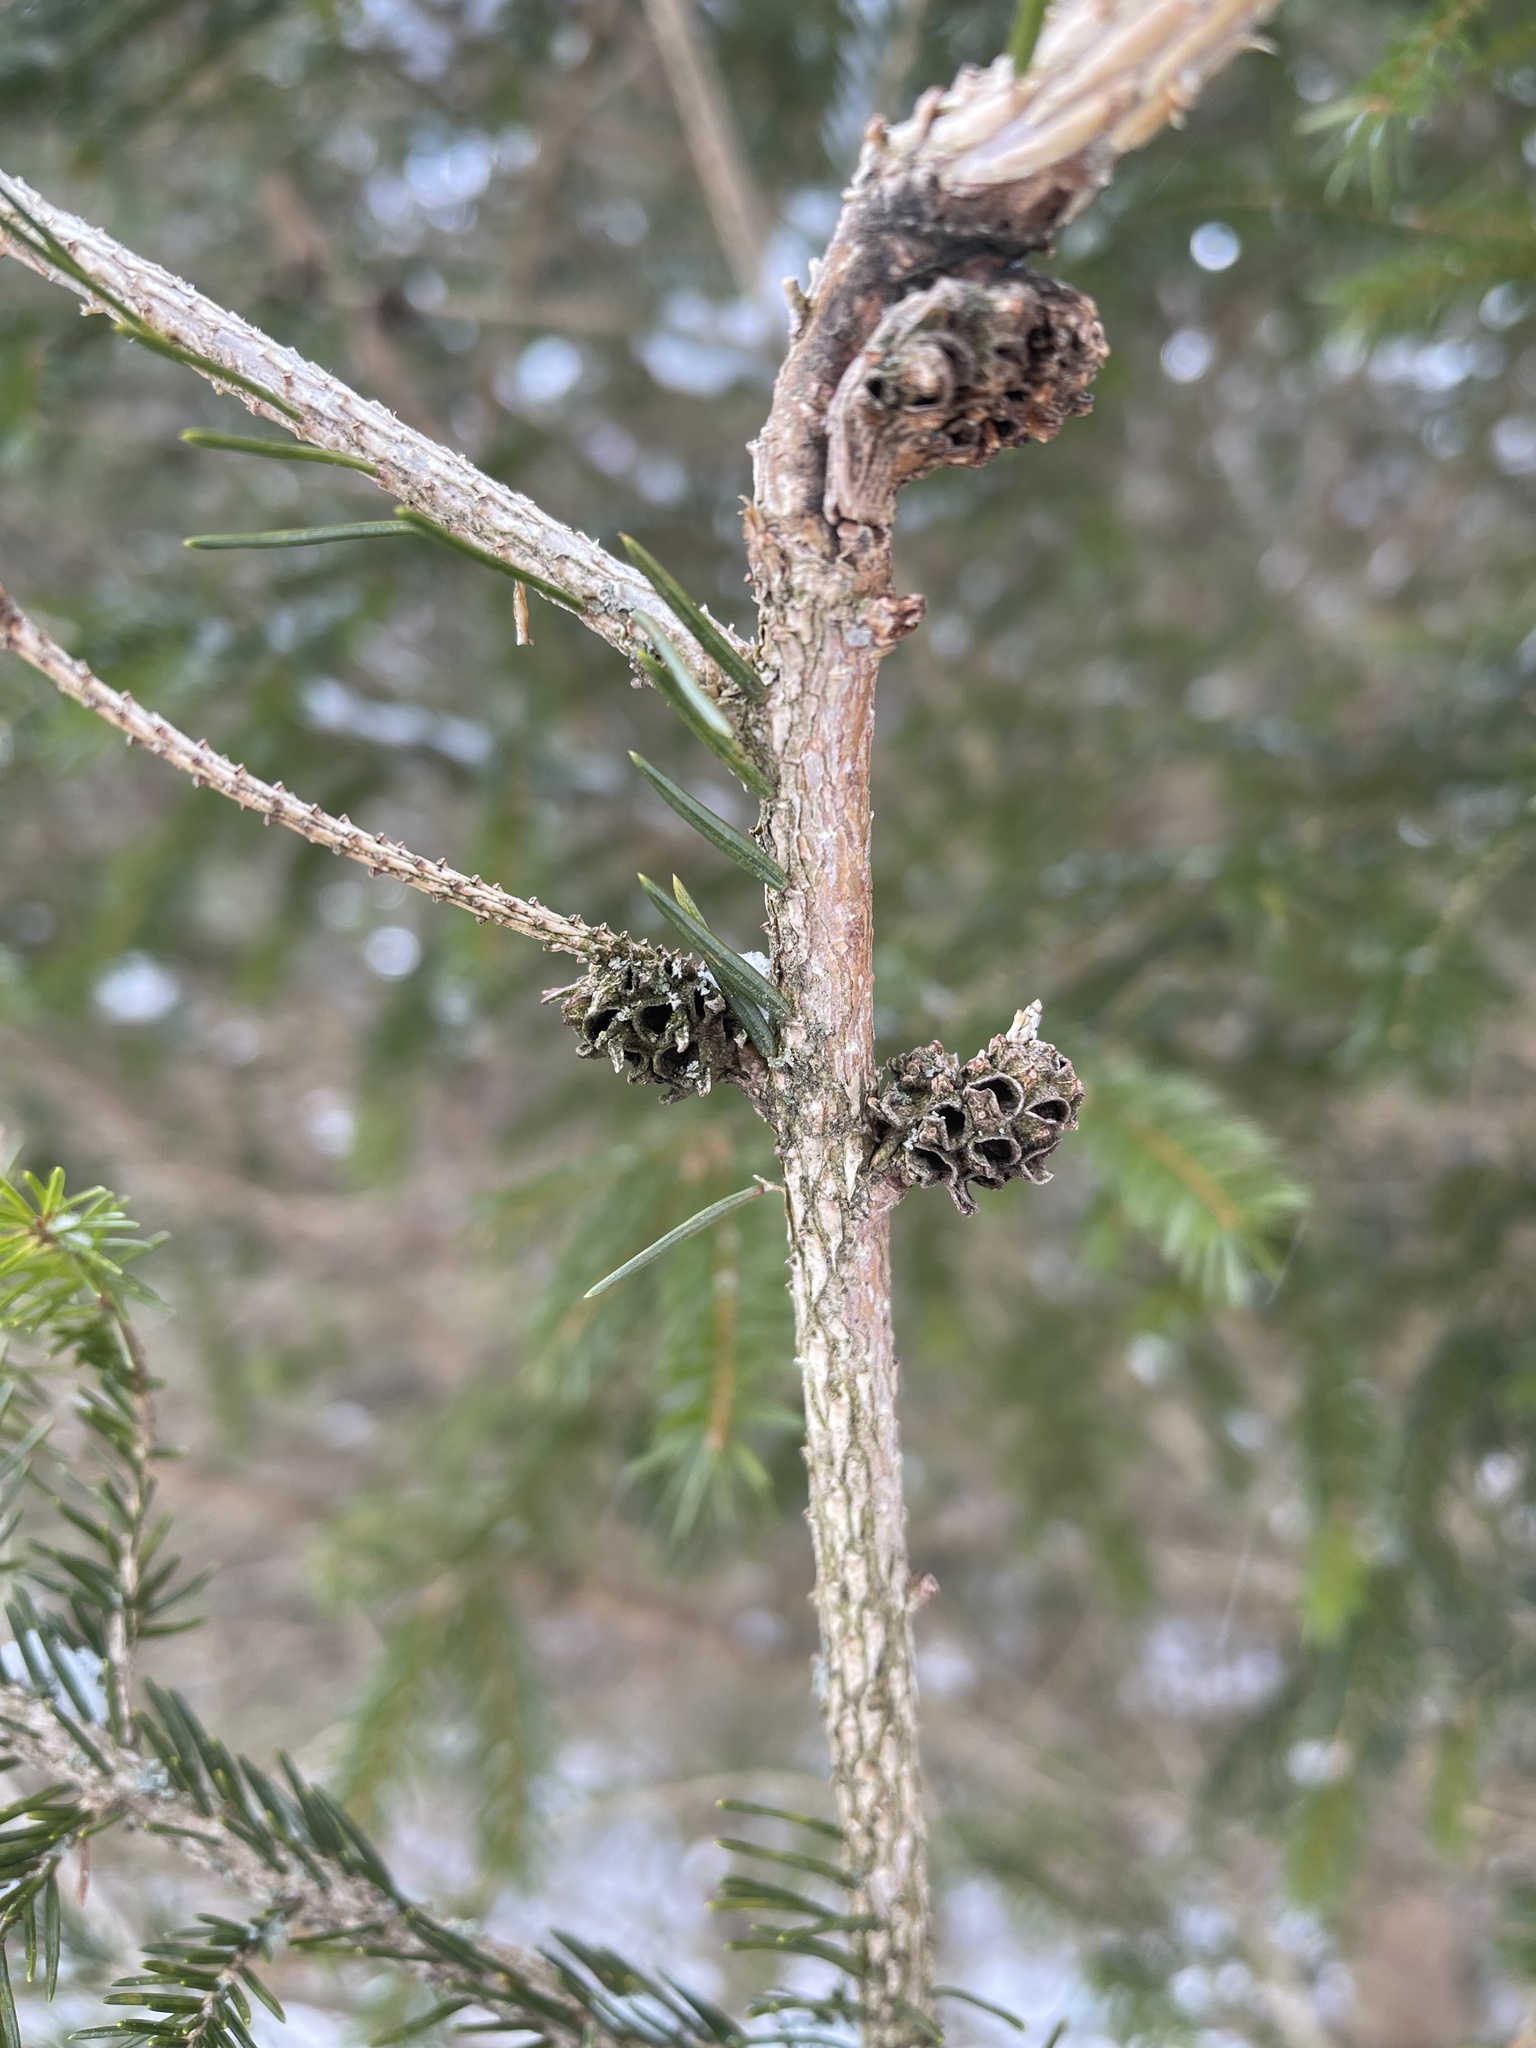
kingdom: Animalia
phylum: Arthropoda
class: Insecta
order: Hemiptera
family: Adelgidae
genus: Adelges
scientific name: Adelges abietis
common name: Eastern spruce gall adelgid
